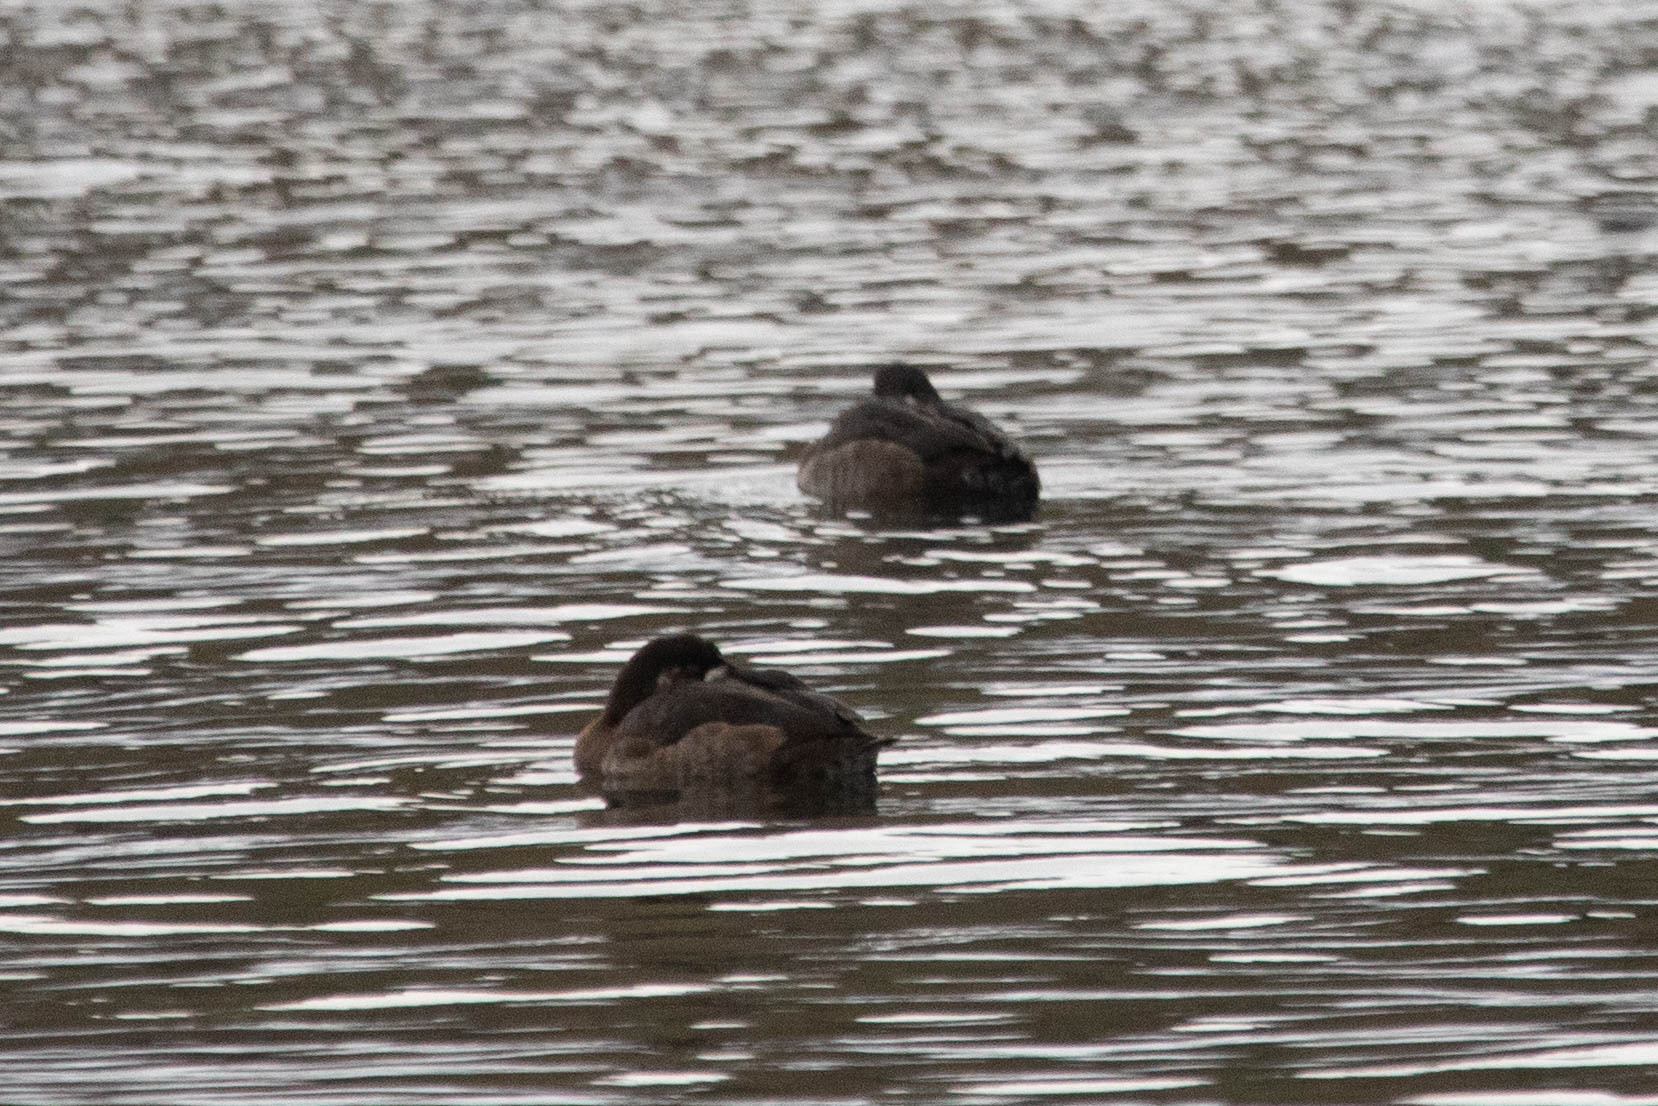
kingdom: Animalia
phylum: Chordata
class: Aves
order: Anseriformes
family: Anatidae
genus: Aythya
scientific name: Aythya marila
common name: Greater scaup
